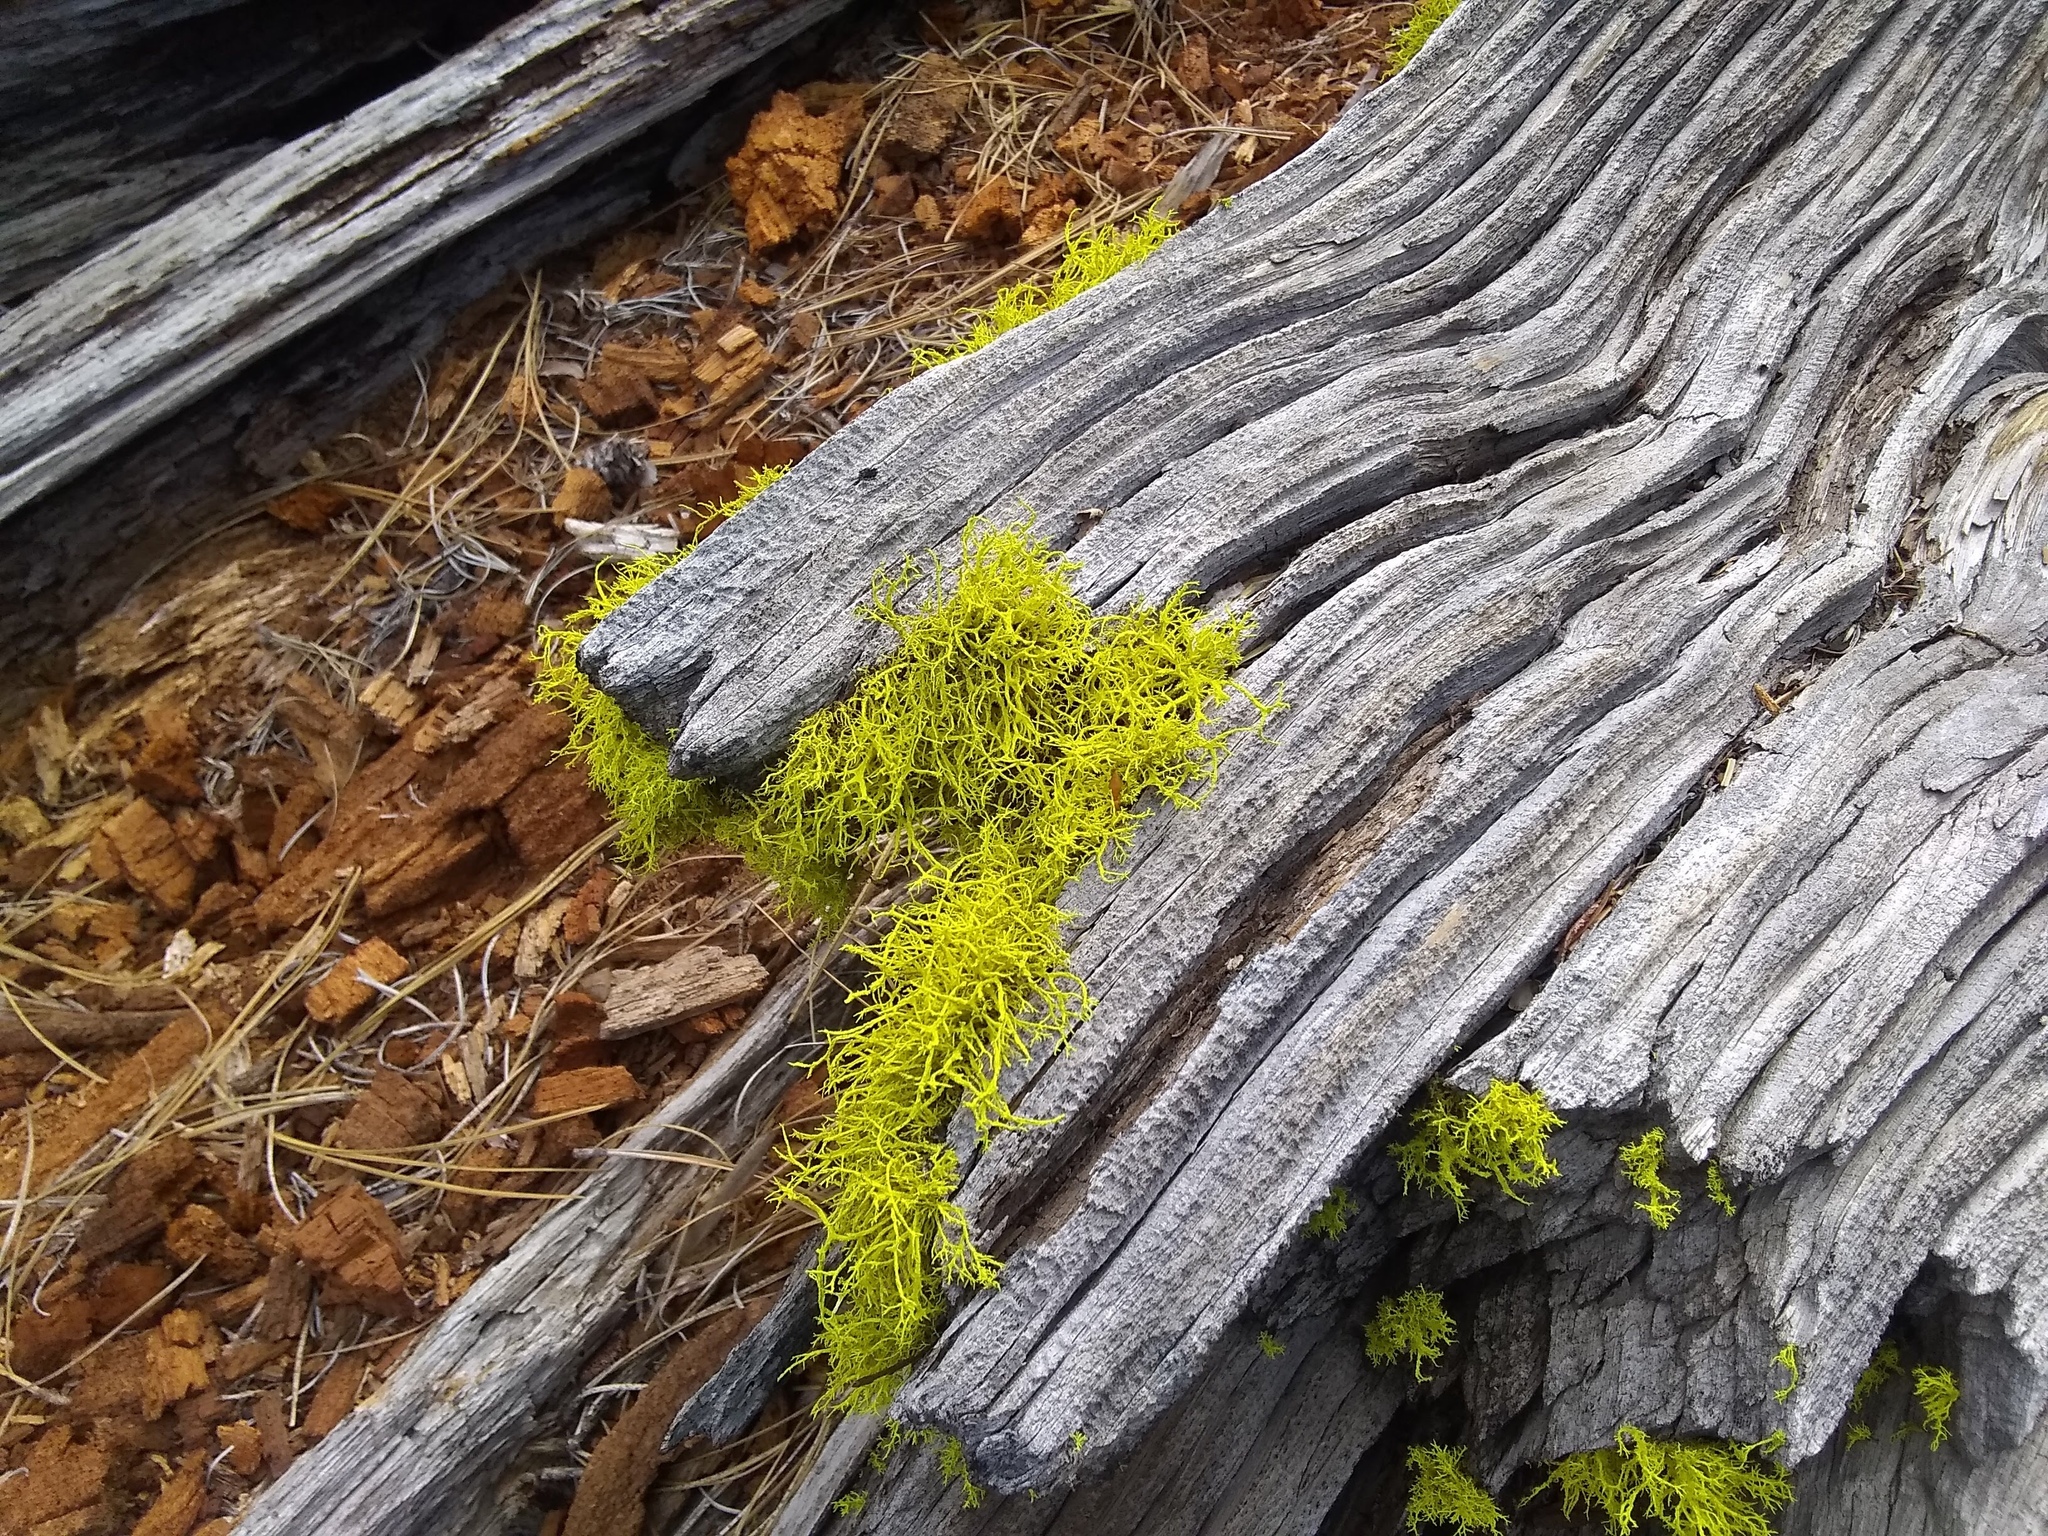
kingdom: Fungi
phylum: Ascomycota
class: Lecanoromycetes
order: Lecanorales
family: Parmeliaceae
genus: Letharia
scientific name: Letharia vulpina
